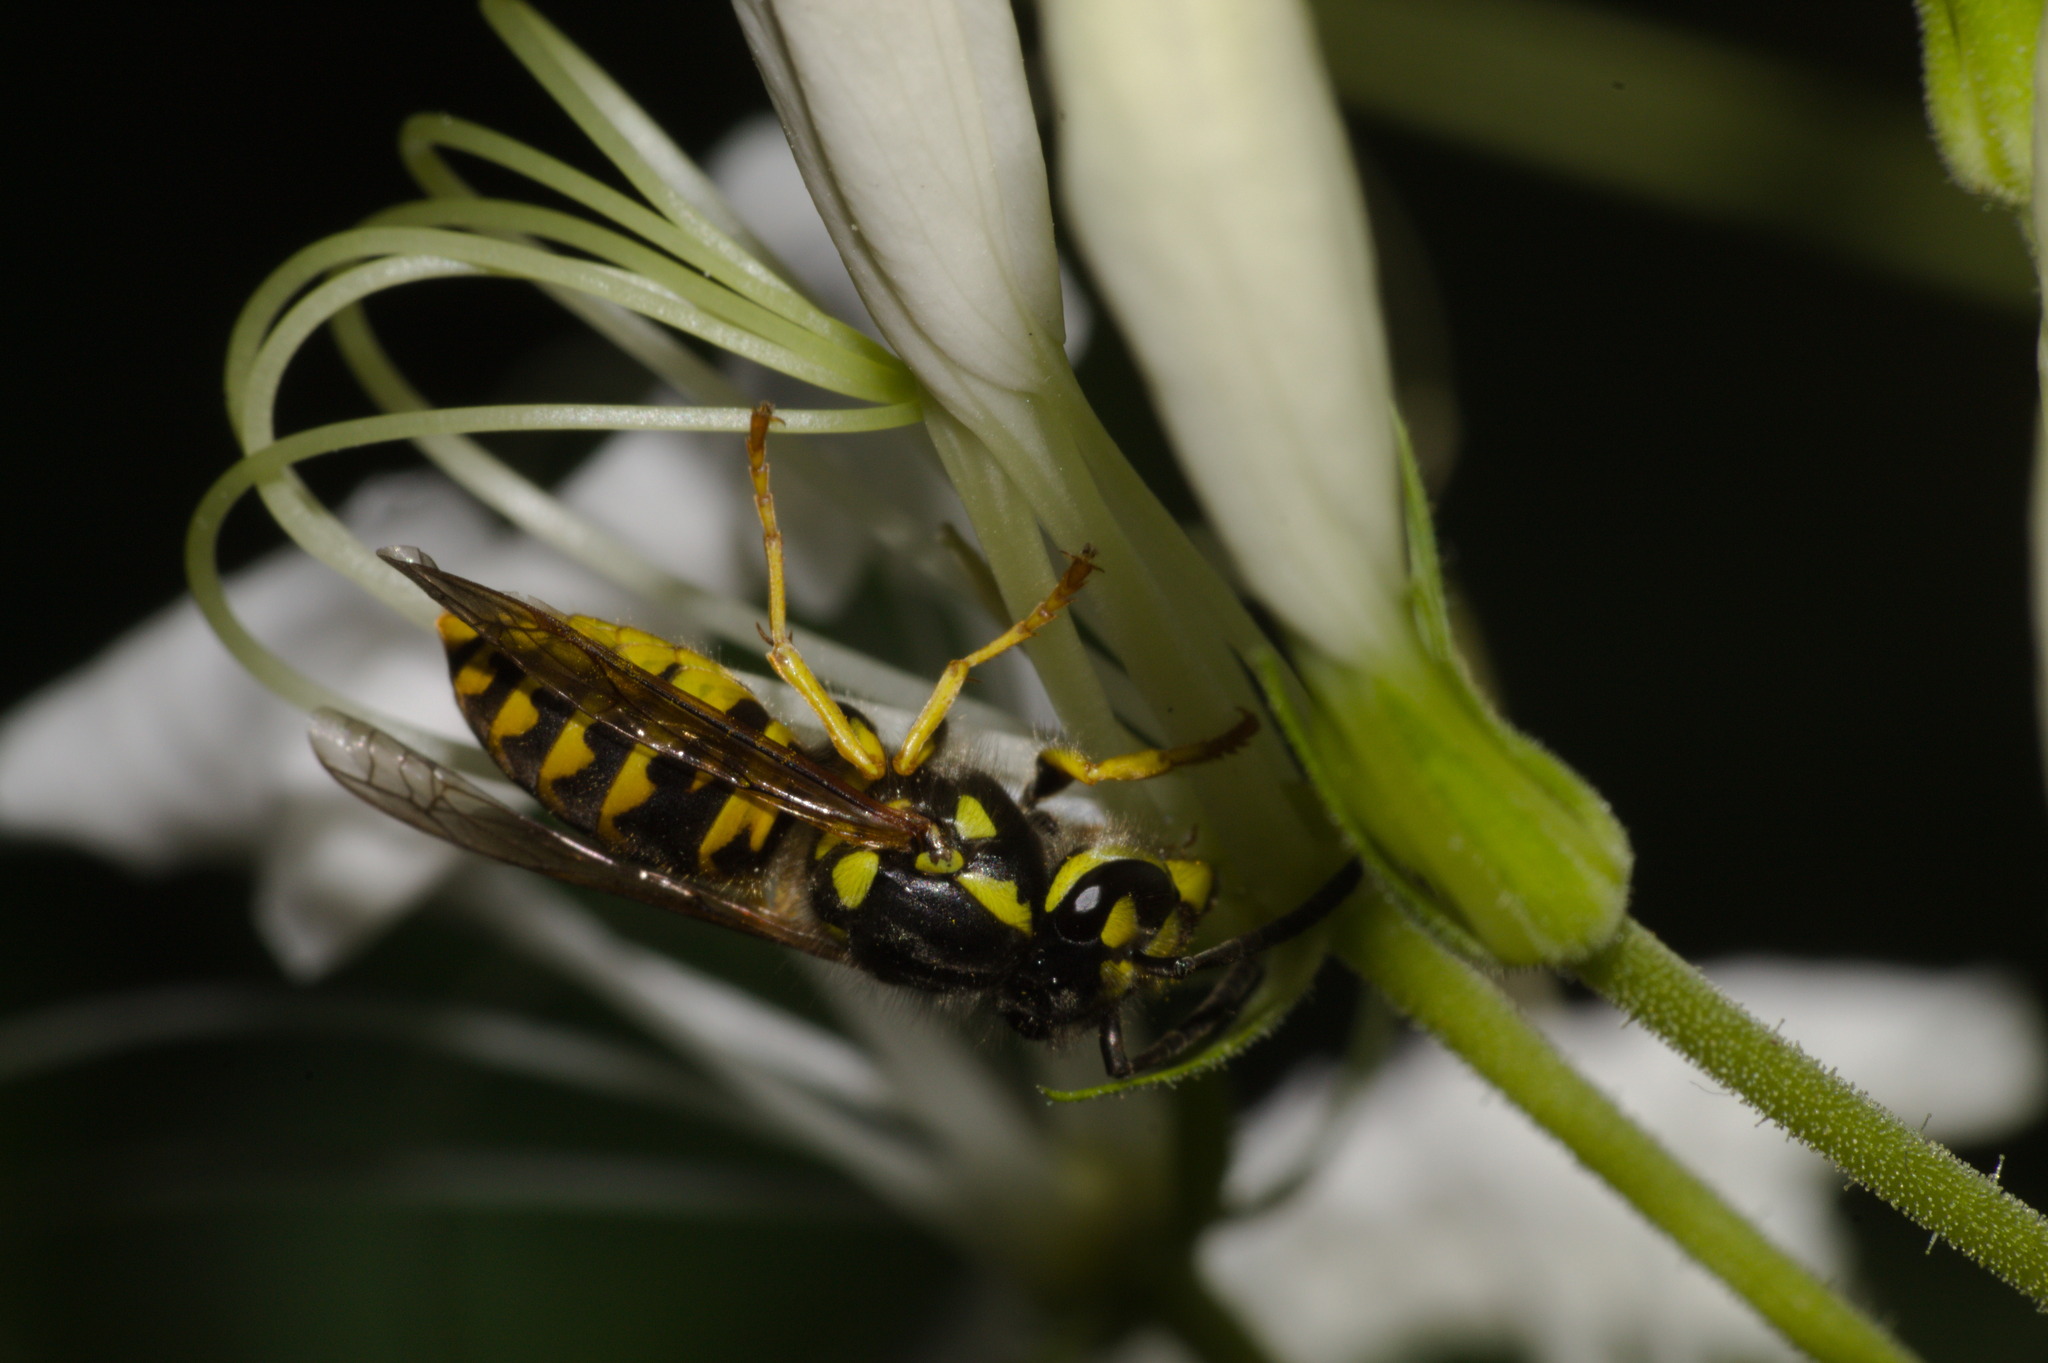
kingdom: Animalia
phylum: Arthropoda
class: Insecta
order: Hymenoptera
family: Vespidae
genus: Vespula
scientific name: Vespula germanica
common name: German wasp
